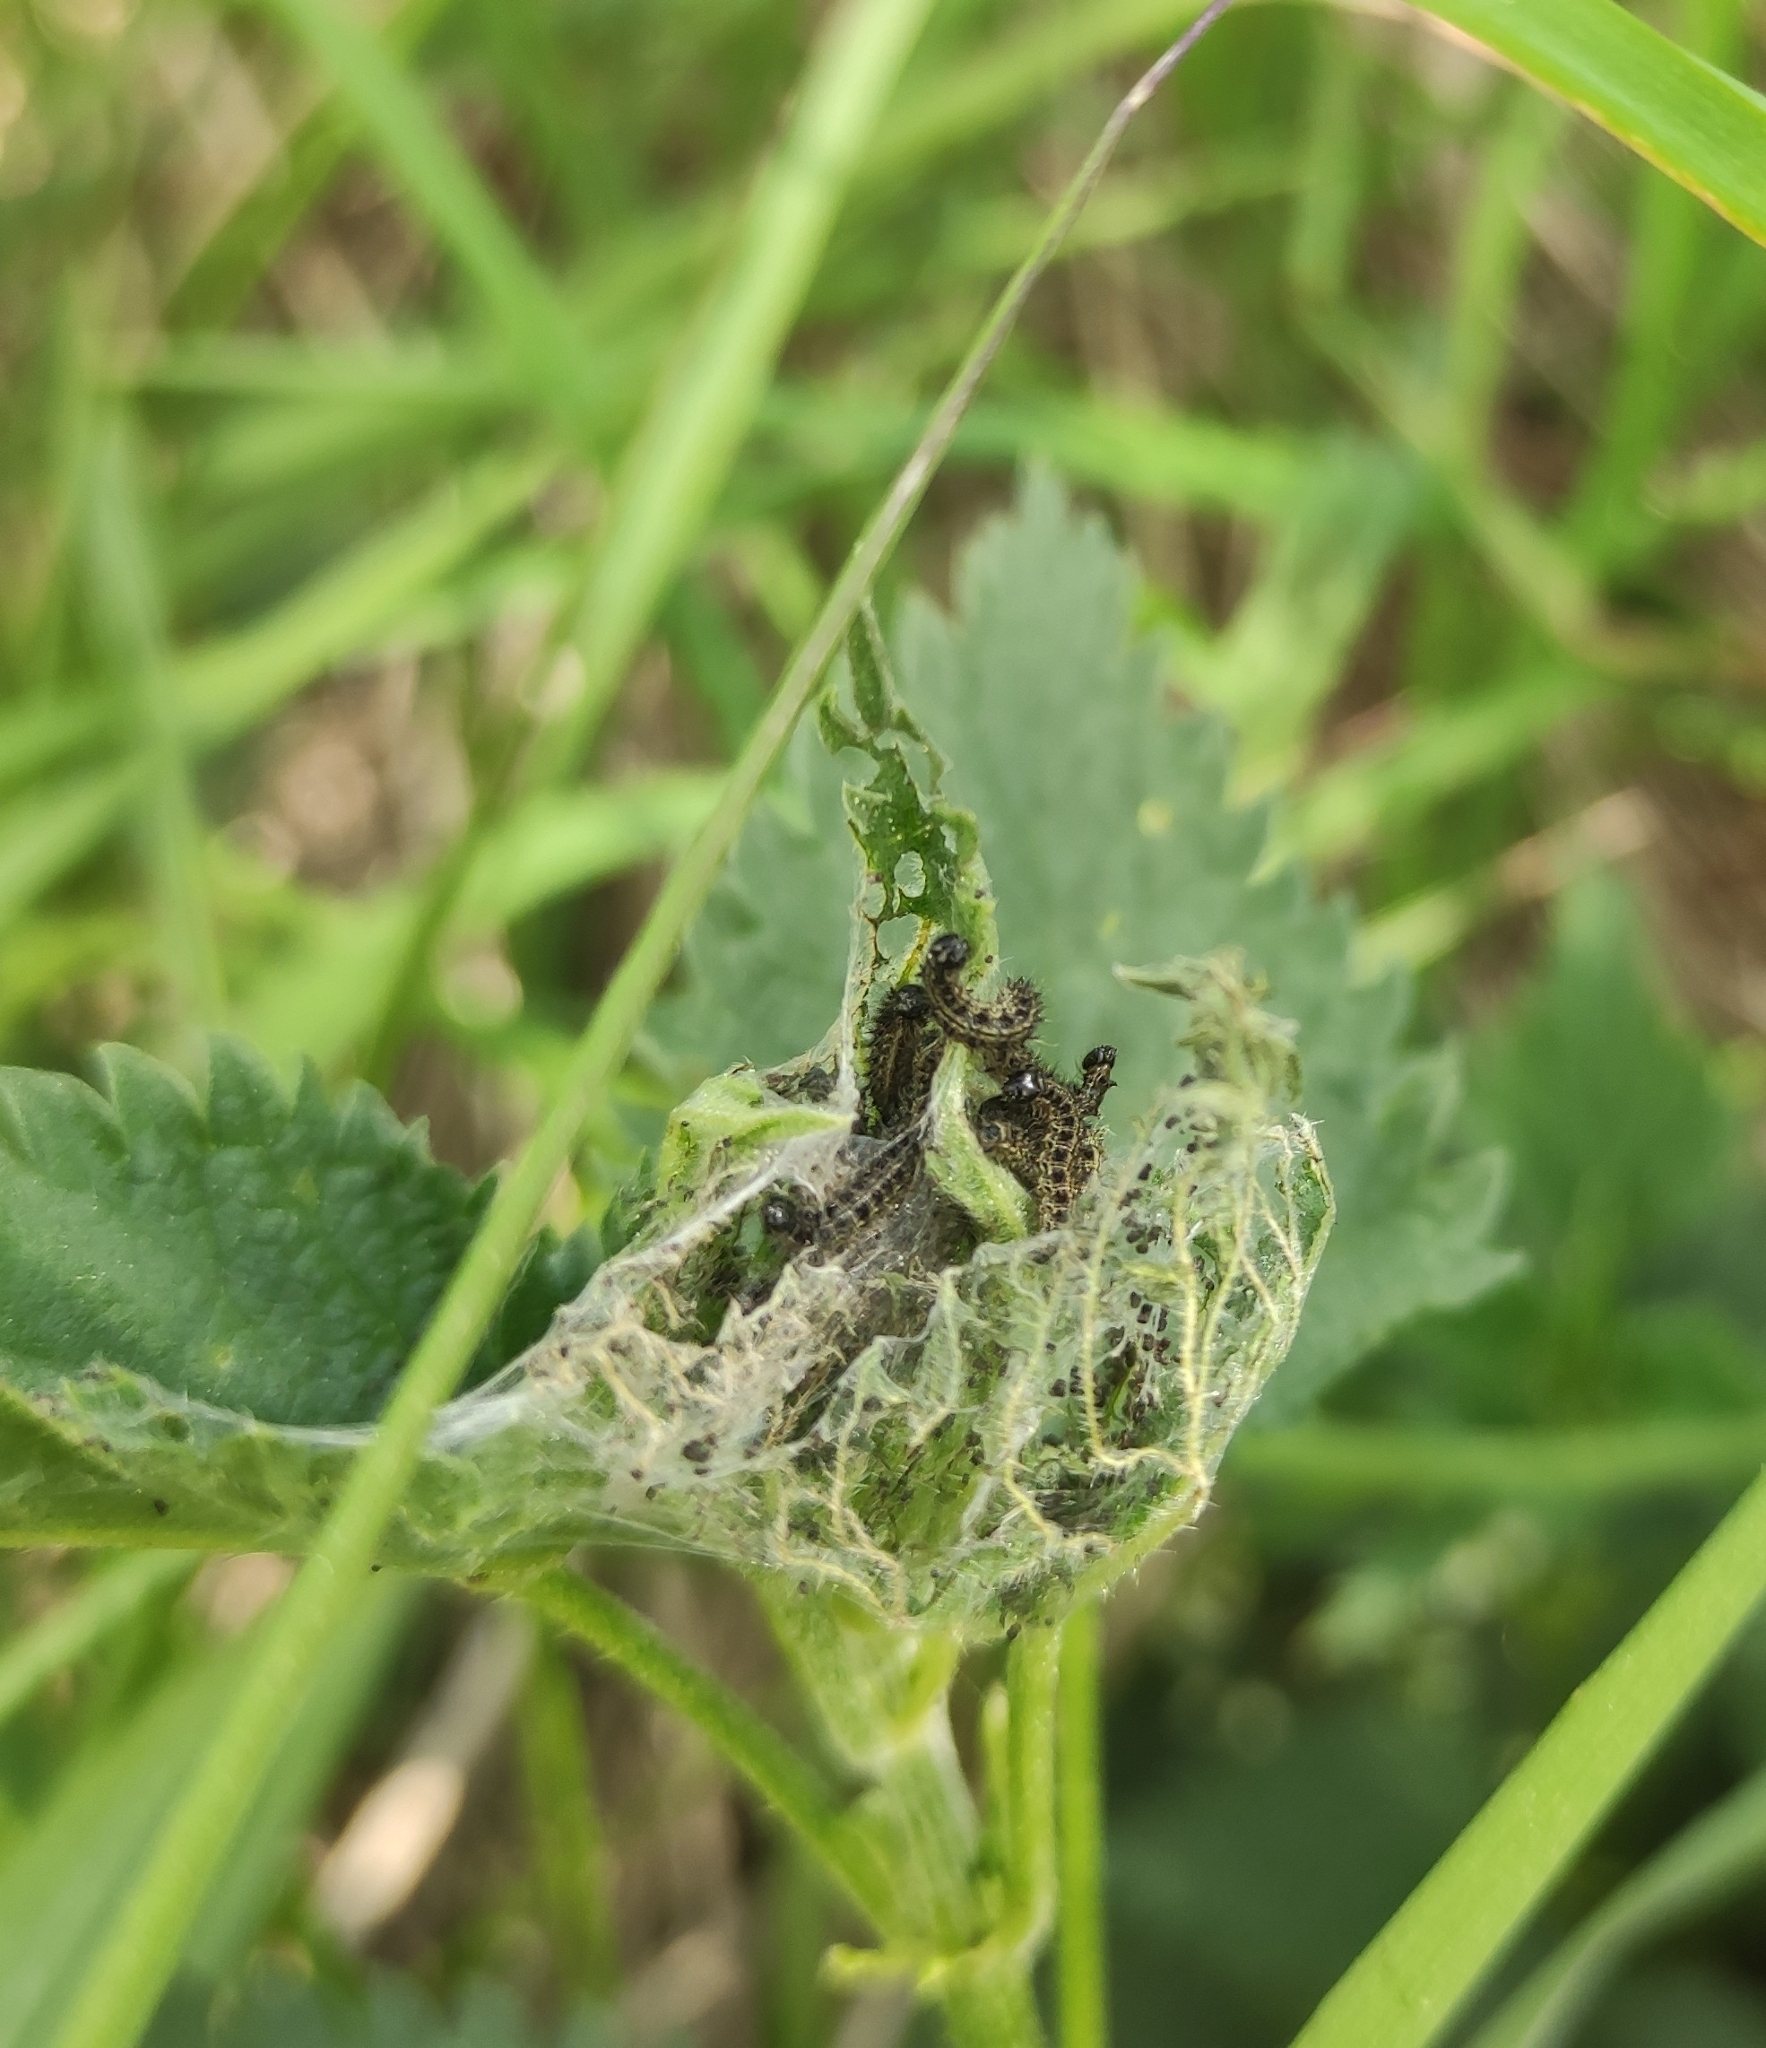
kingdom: Animalia
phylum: Arthropoda
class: Insecta
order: Lepidoptera
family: Nymphalidae
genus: Aglais
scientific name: Aglais urticae
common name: Small tortoiseshell
